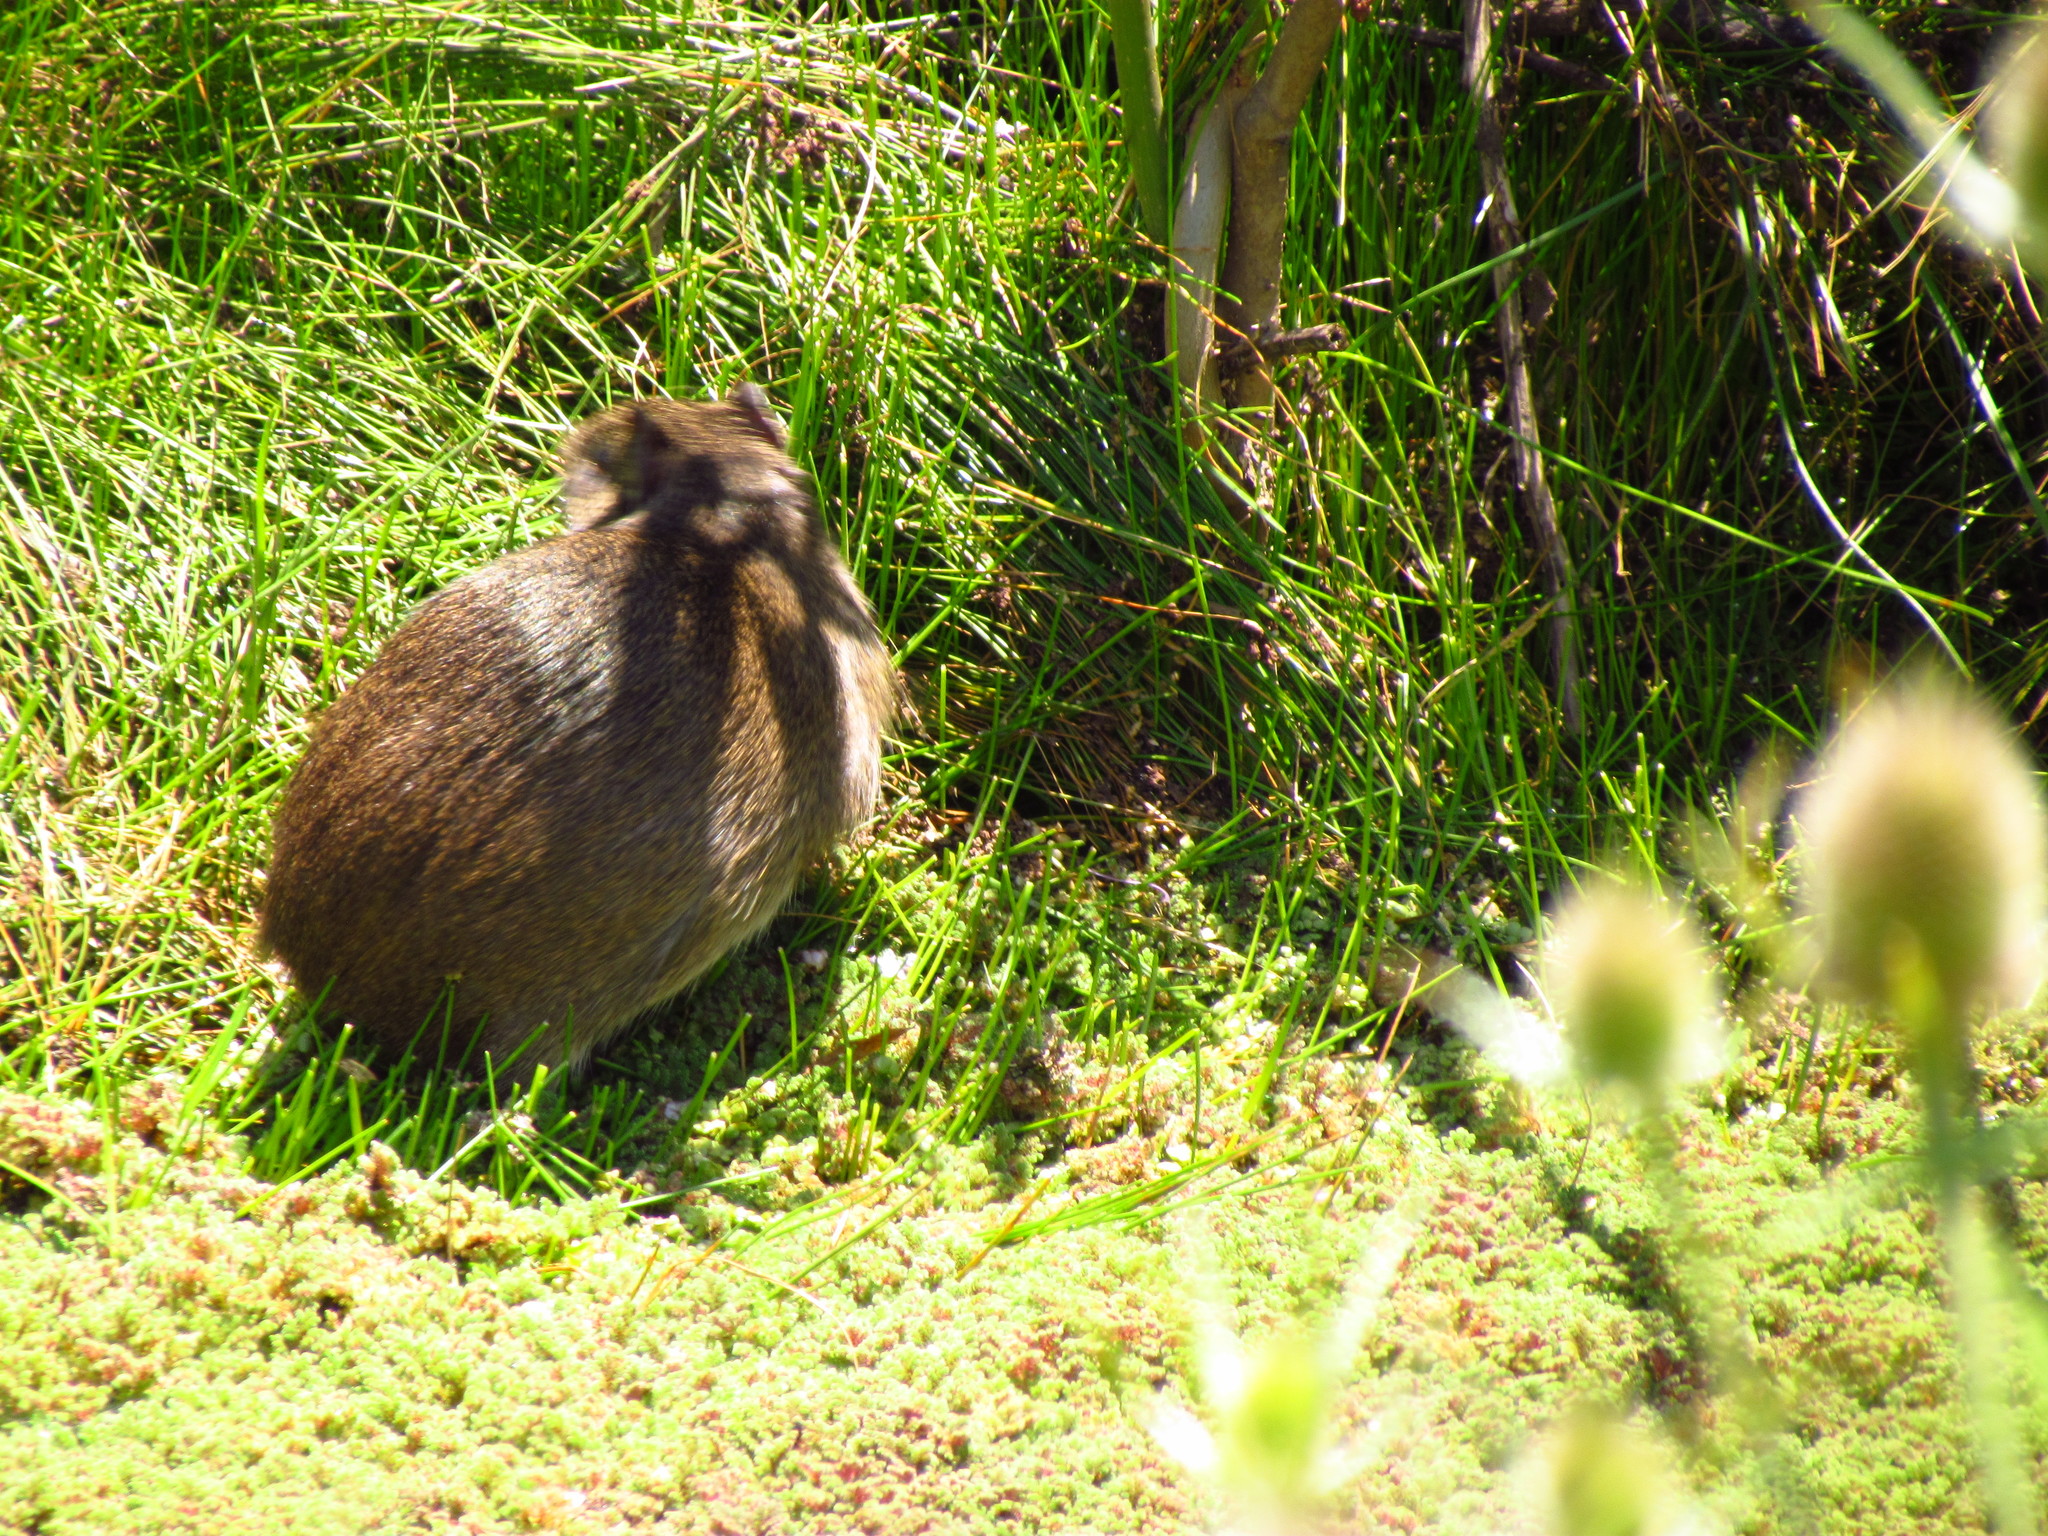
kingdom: Animalia
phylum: Chordata
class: Mammalia
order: Rodentia
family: Caviidae
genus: Cavia
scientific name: Cavia aperea
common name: Brazilian guinea pig
